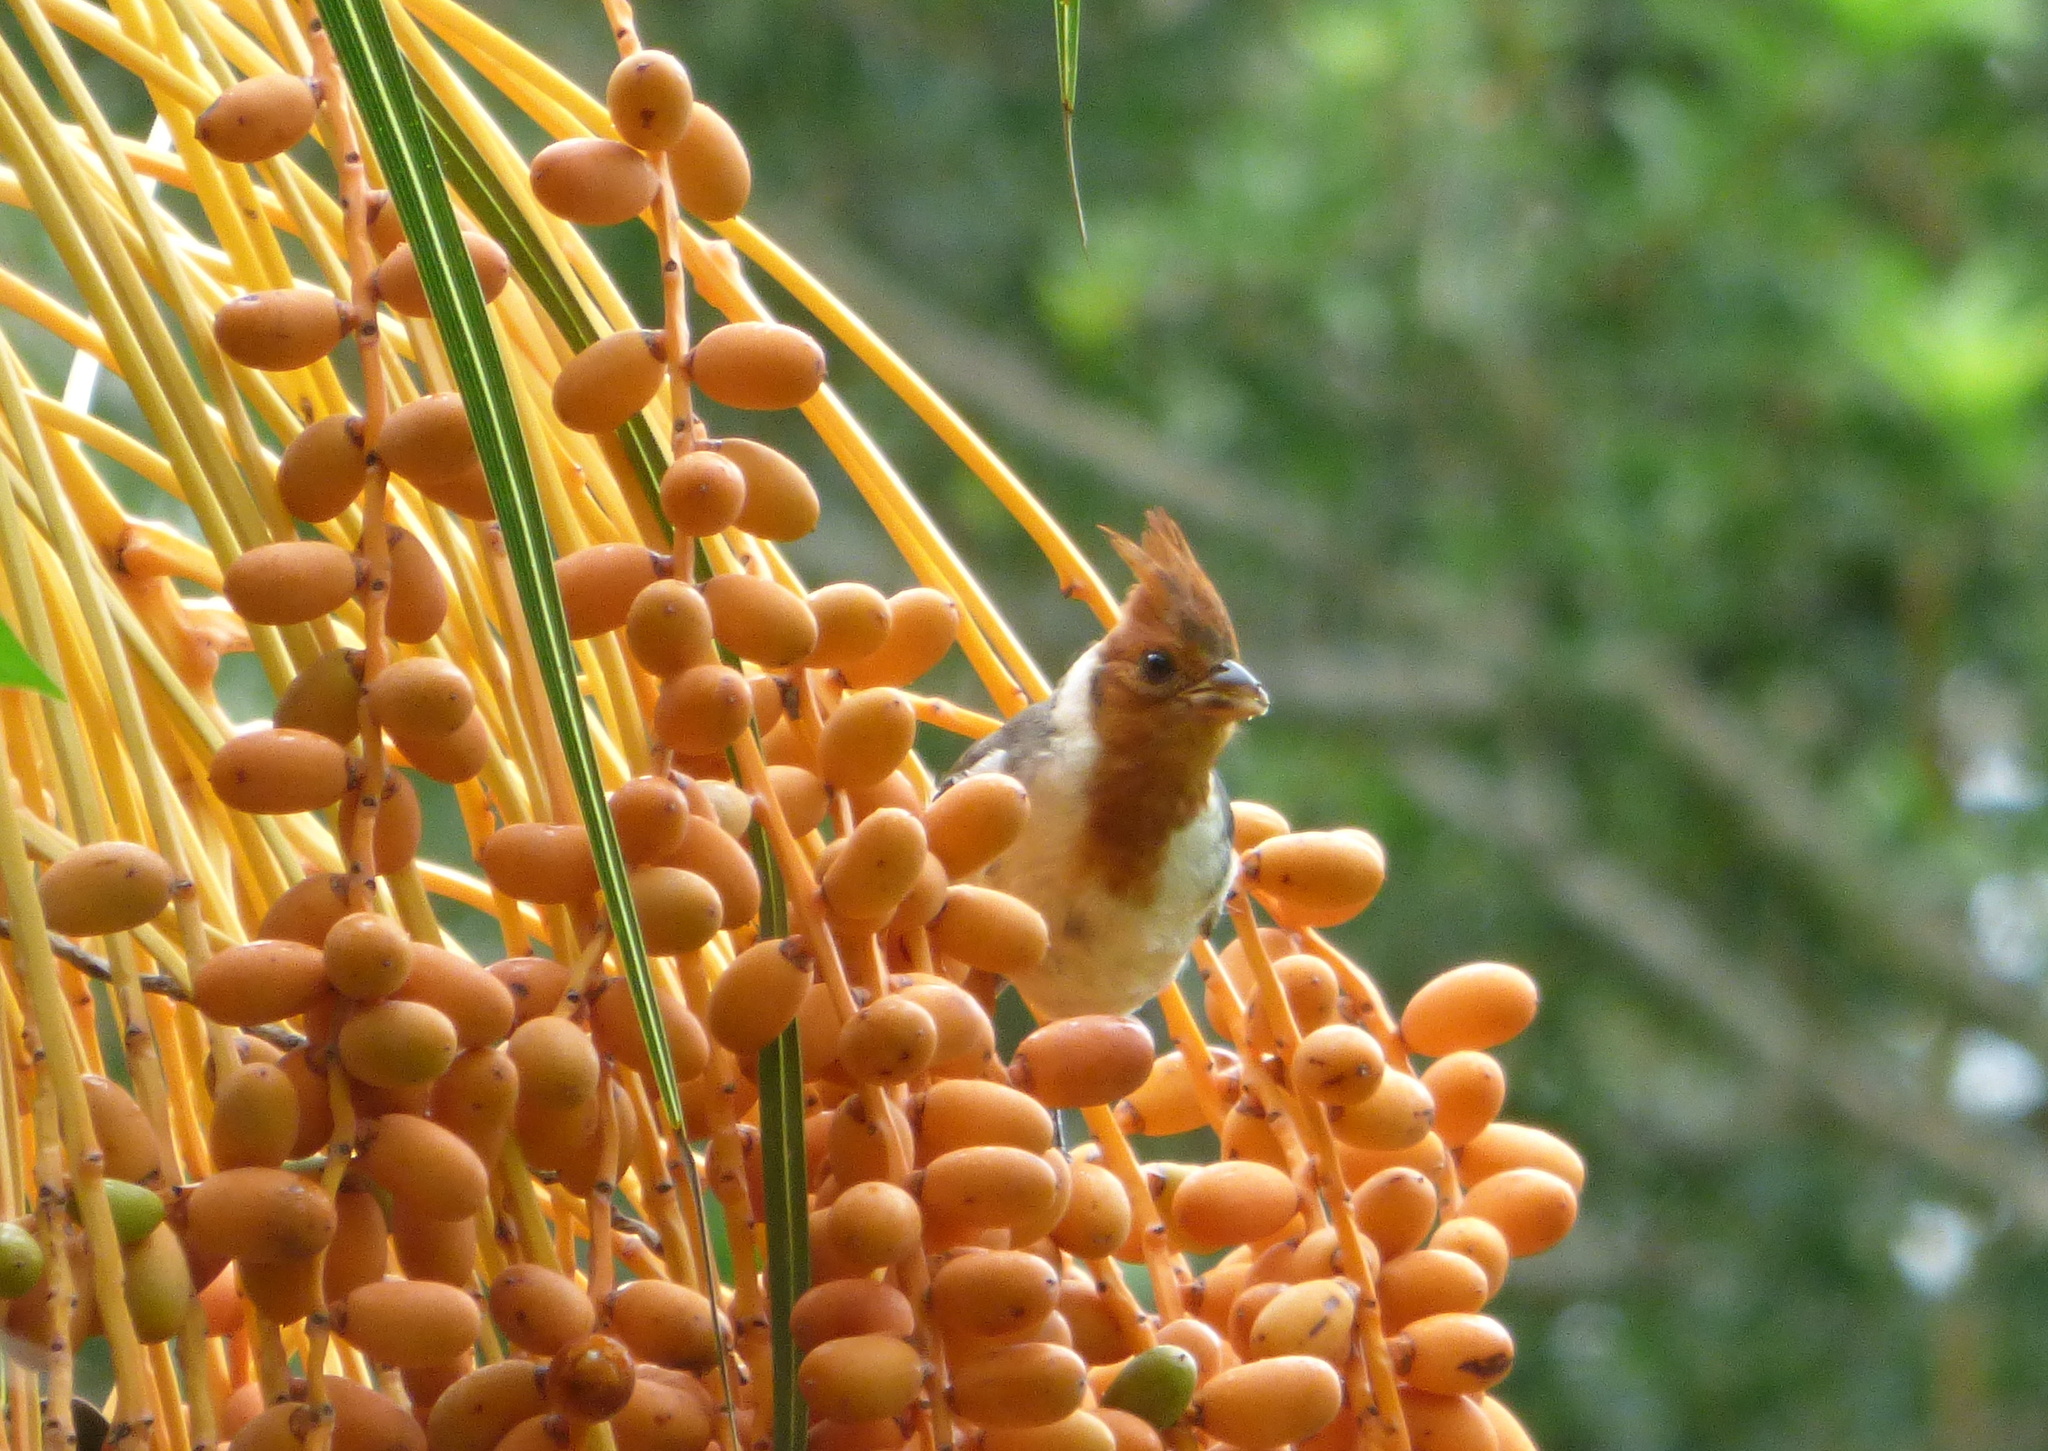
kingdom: Animalia
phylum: Chordata
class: Aves
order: Passeriformes
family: Thraupidae
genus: Paroaria
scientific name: Paroaria coronata
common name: Red-crested cardinal
